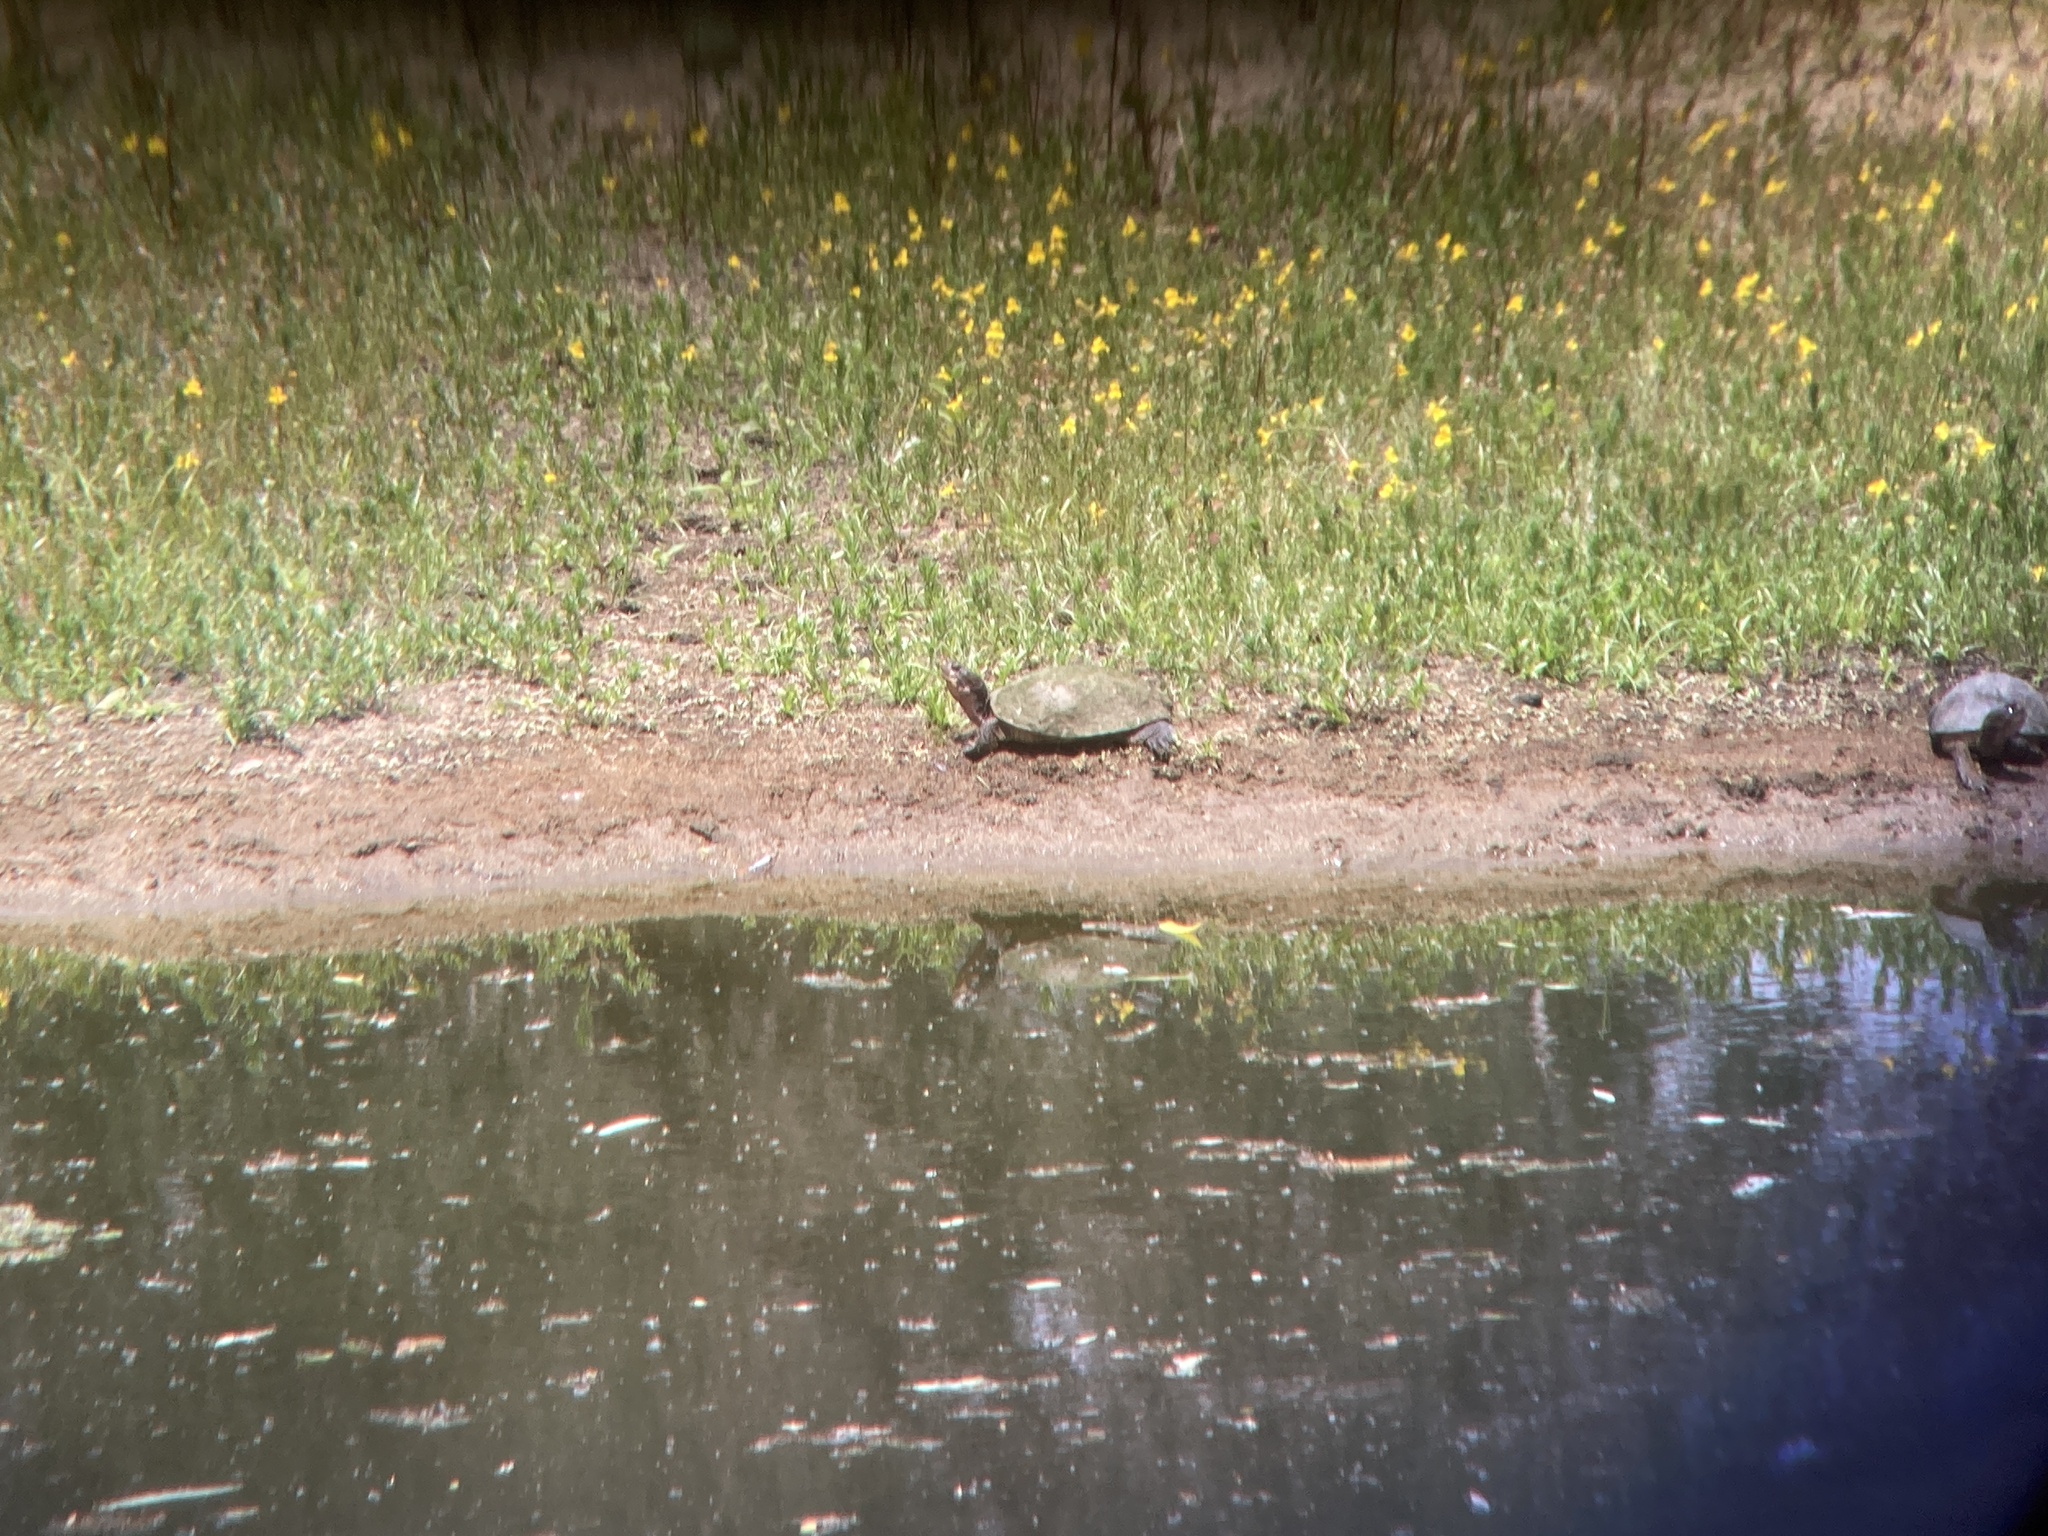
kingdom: Animalia
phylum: Chordata
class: Testudines
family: Emydidae
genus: Actinemys
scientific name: Actinemys marmorata
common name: Western pond turtle
